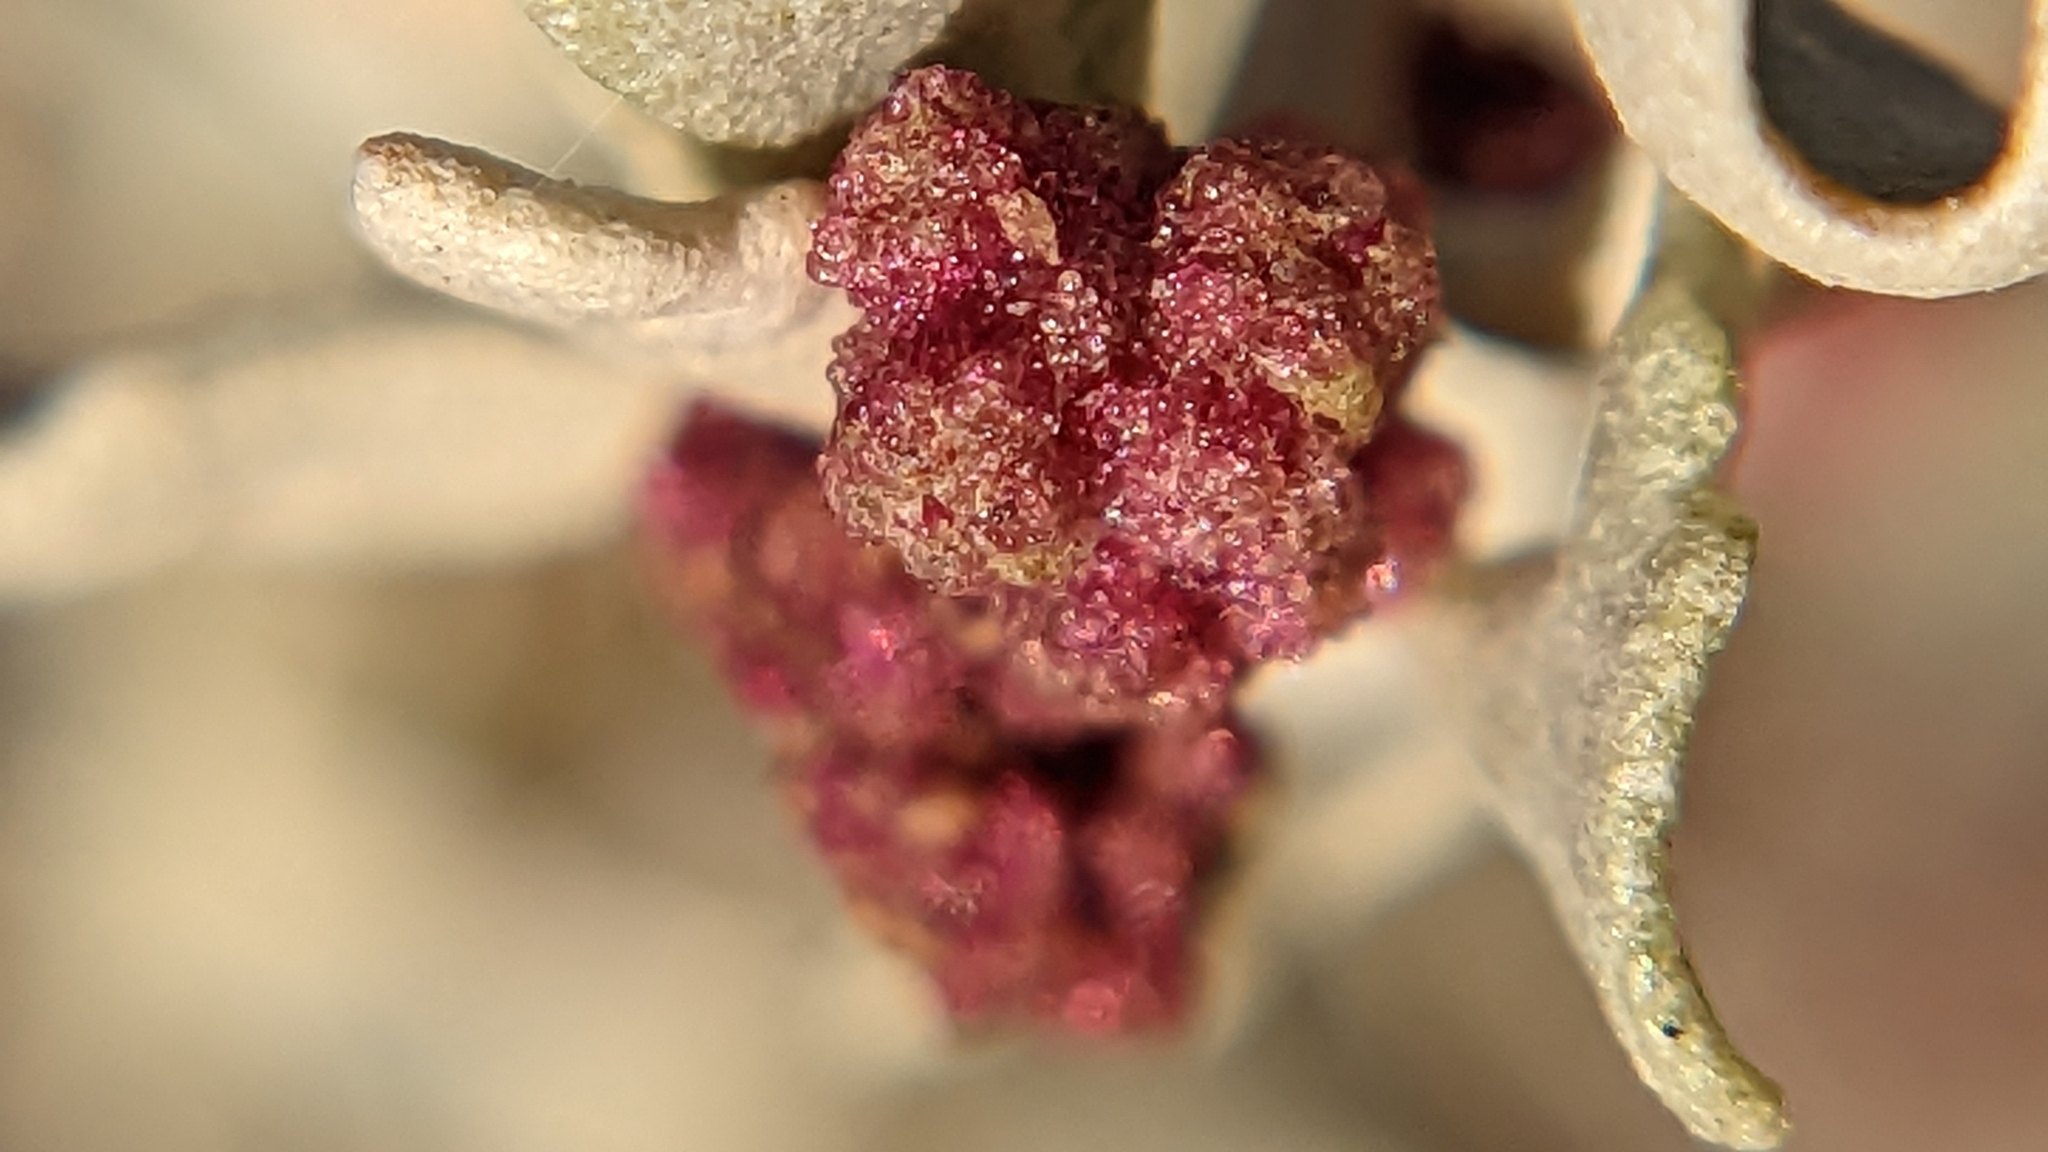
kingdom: Plantae
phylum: Tracheophyta
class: Magnoliopsida
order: Caryophyllales
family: Amaranthaceae
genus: Atriplex
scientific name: Atriplex hymenelytra
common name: Desert-holly
